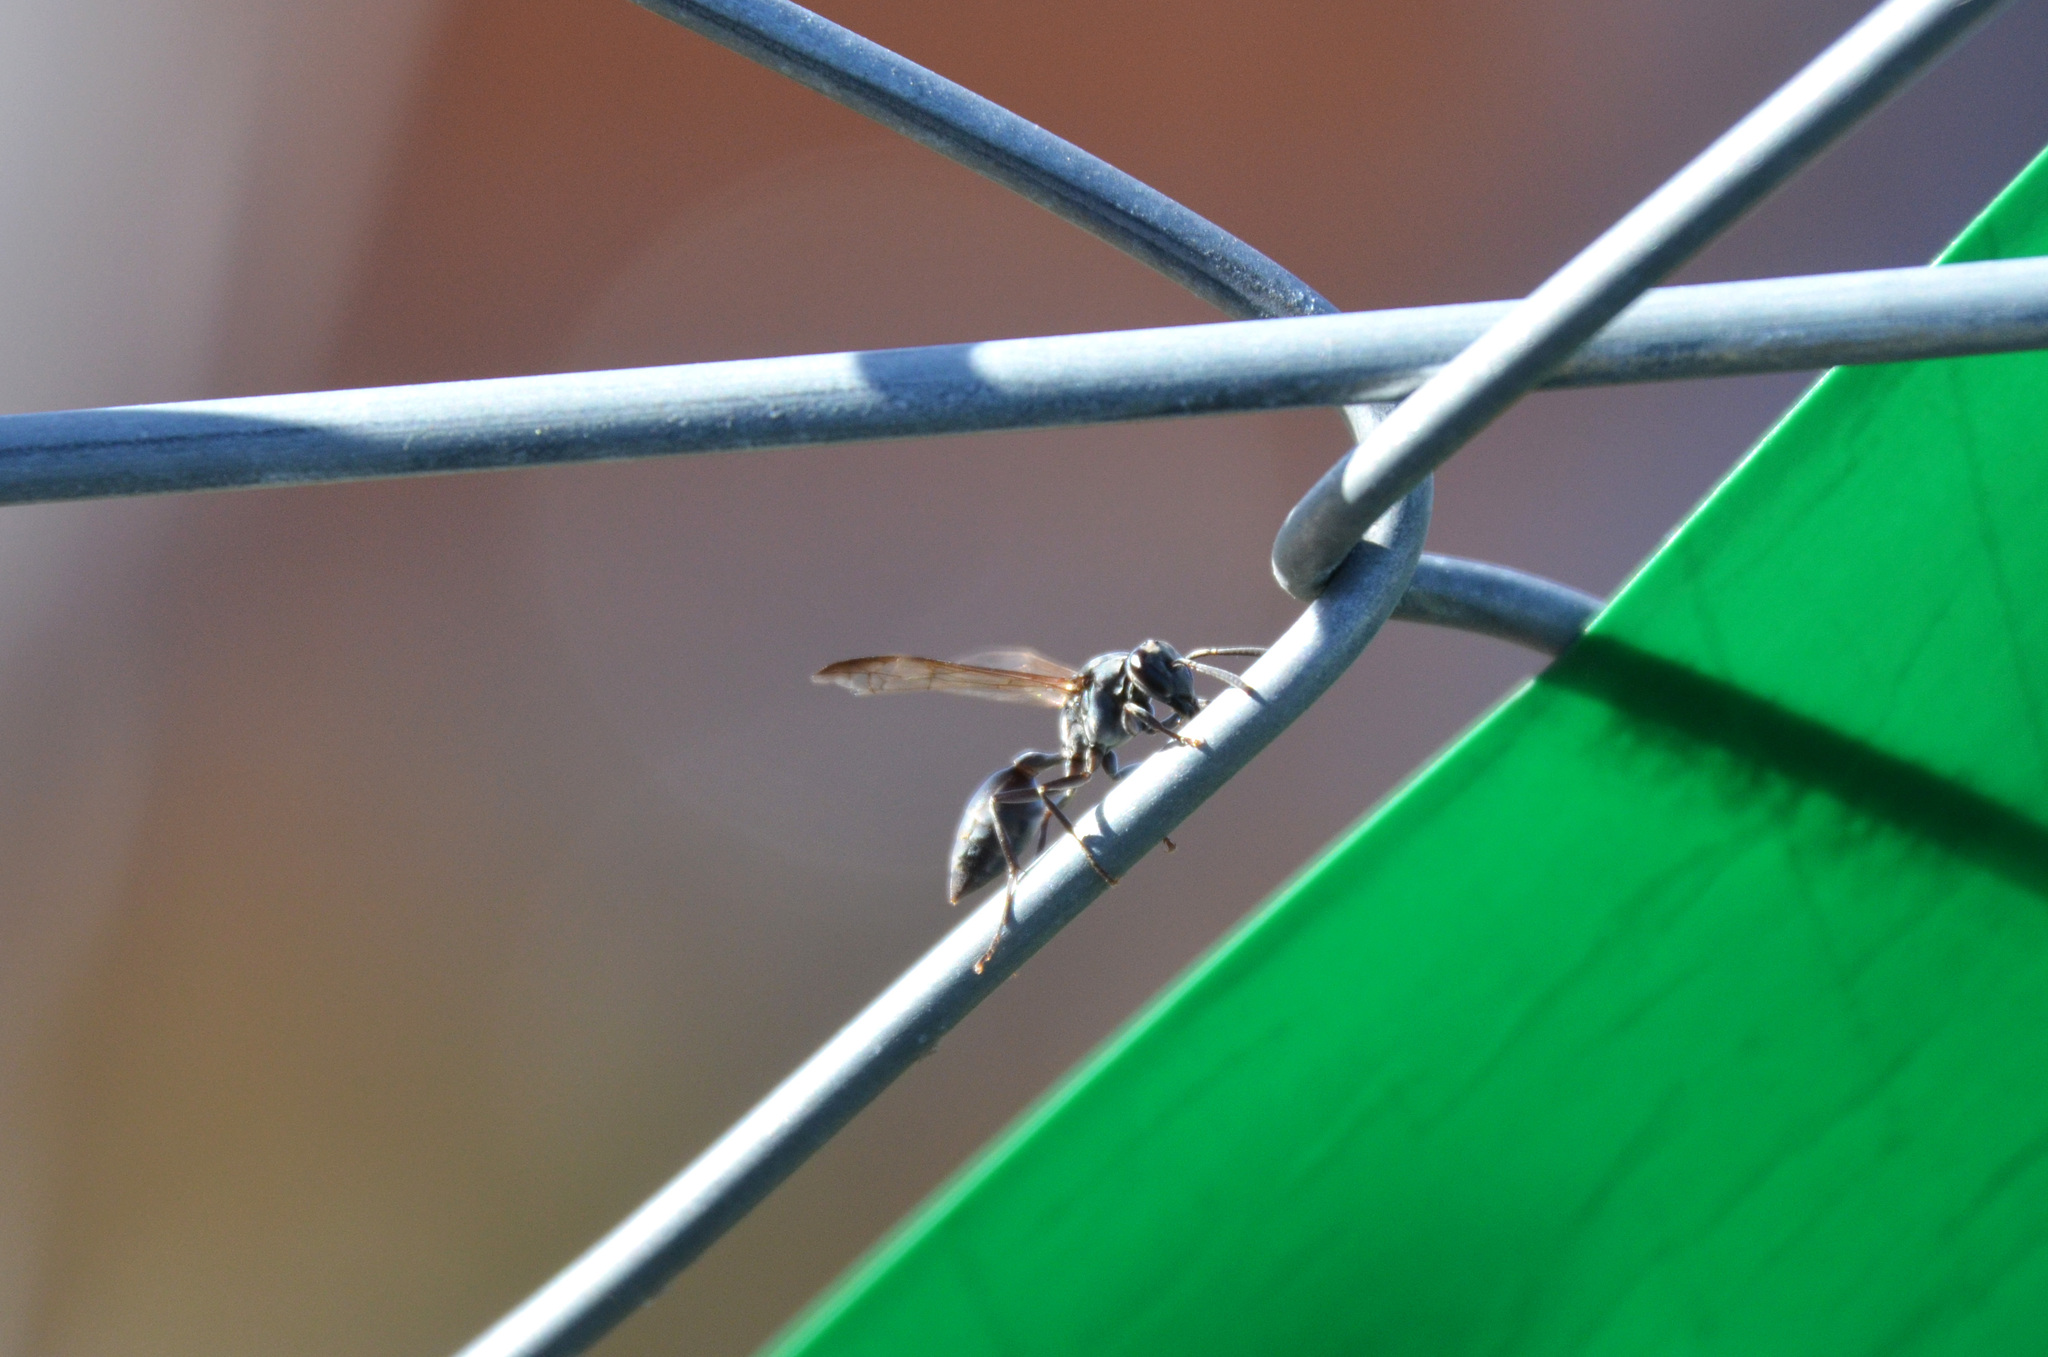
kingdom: Animalia
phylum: Arthropoda
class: Insecta
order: Hymenoptera
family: Eumenidae
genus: Polybia
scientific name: Polybia scutellaris
